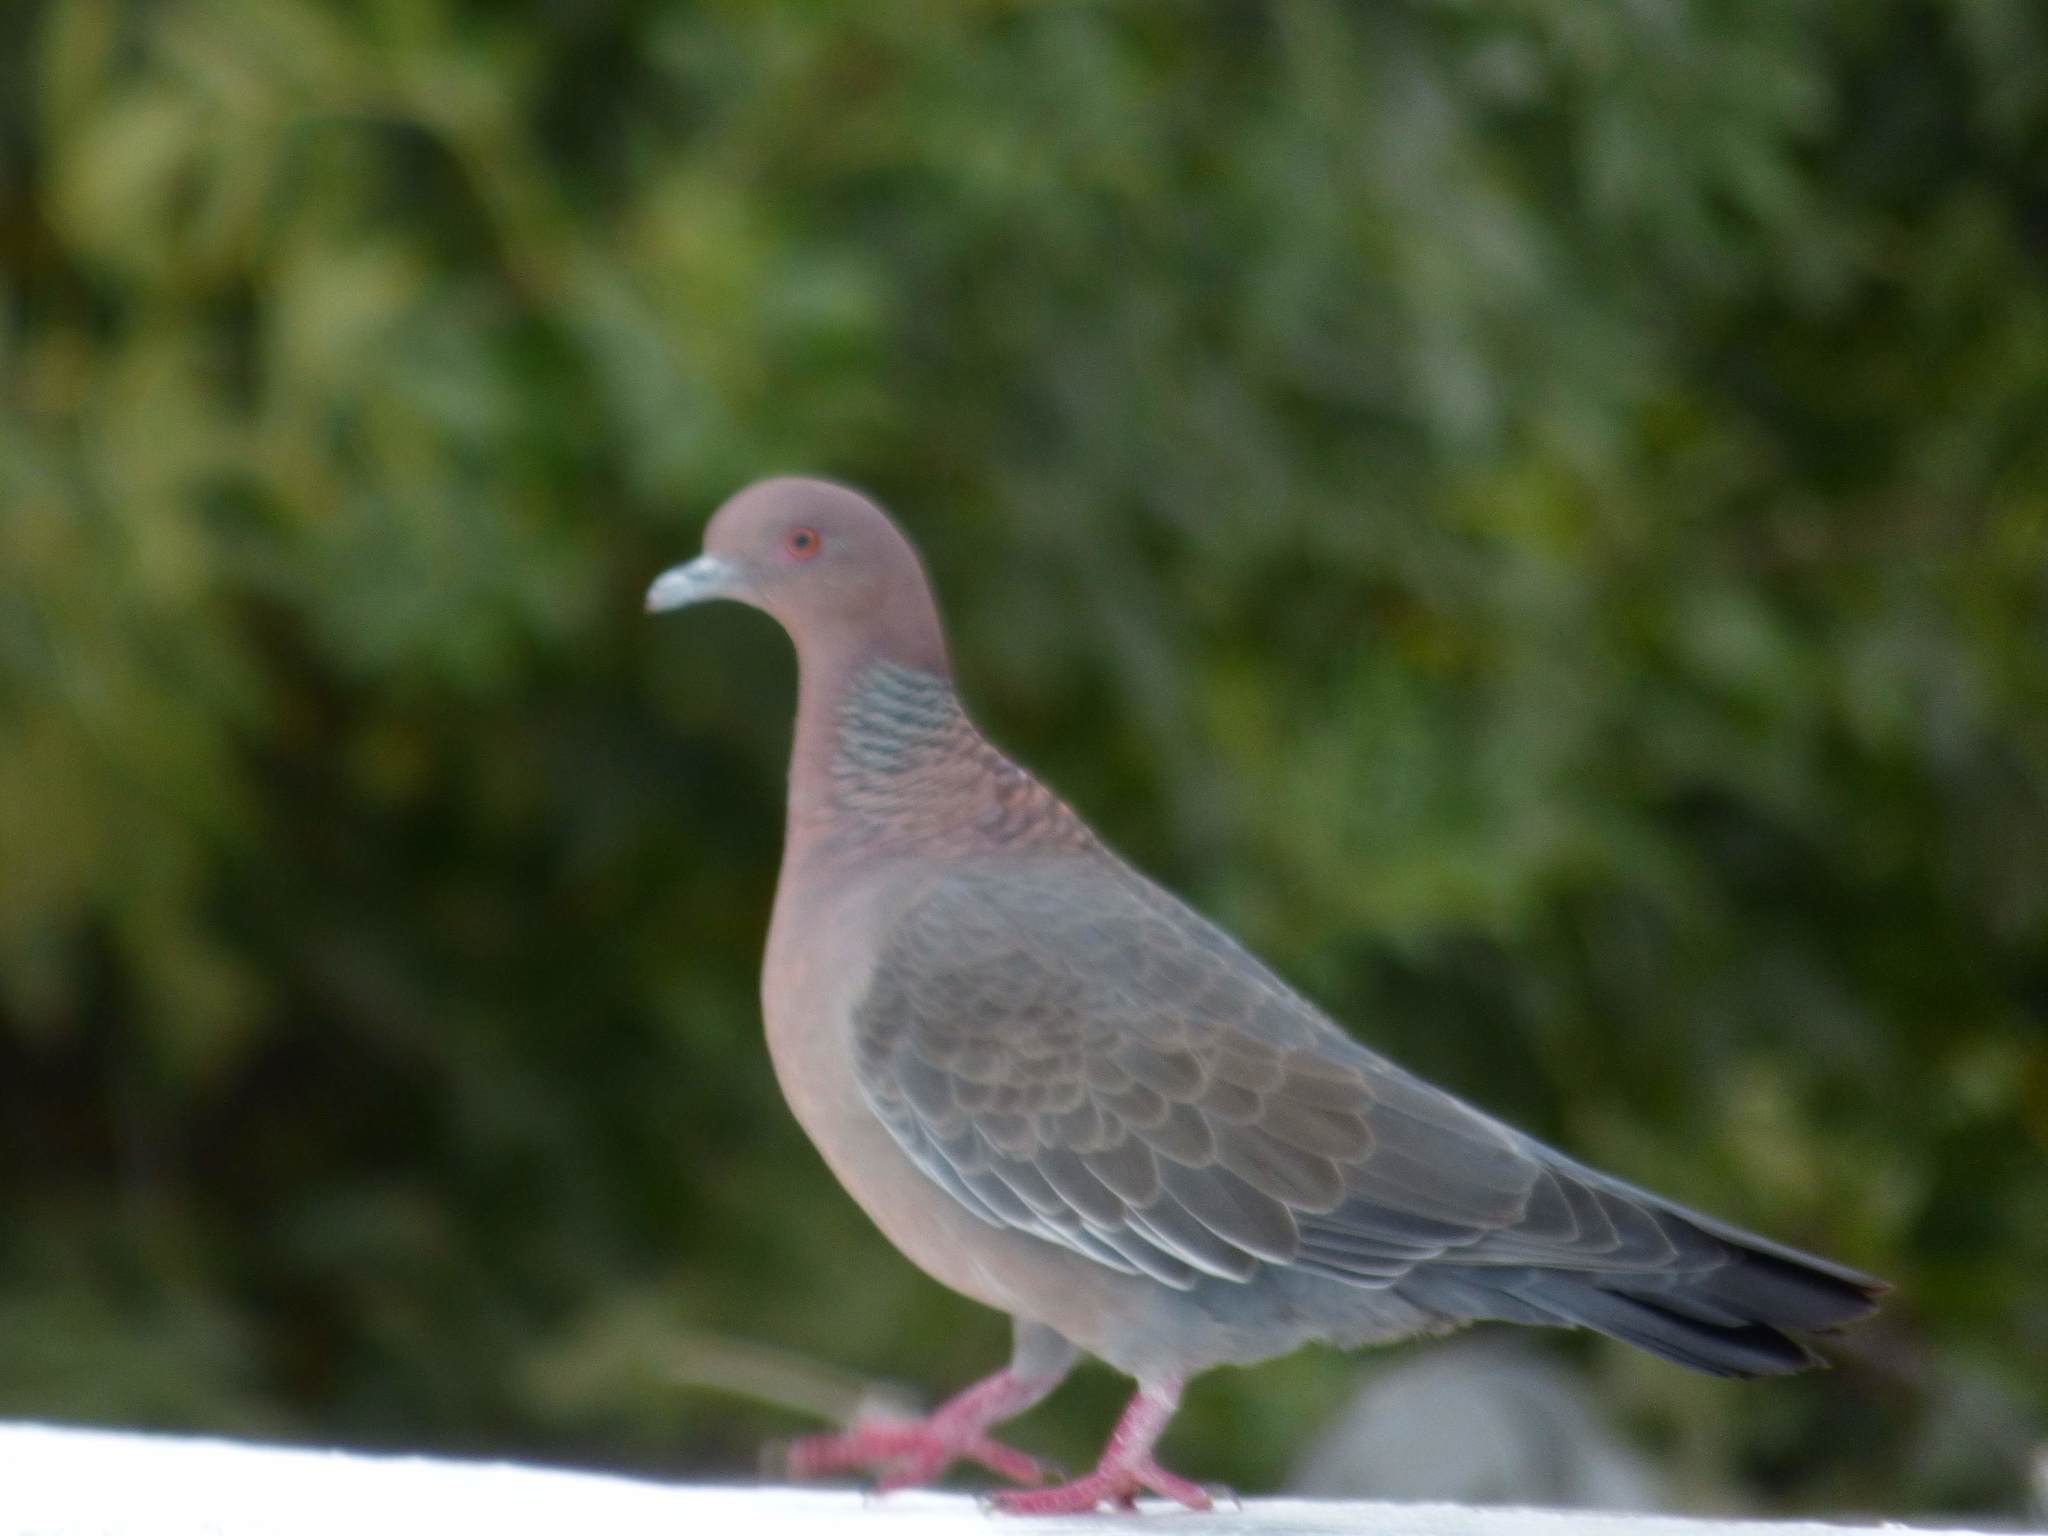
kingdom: Animalia
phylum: Chordata
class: Aves
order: Columbiformes
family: Columbidae
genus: Patagioenas
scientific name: Patagioenas picazuro
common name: Picazuro pigeon
